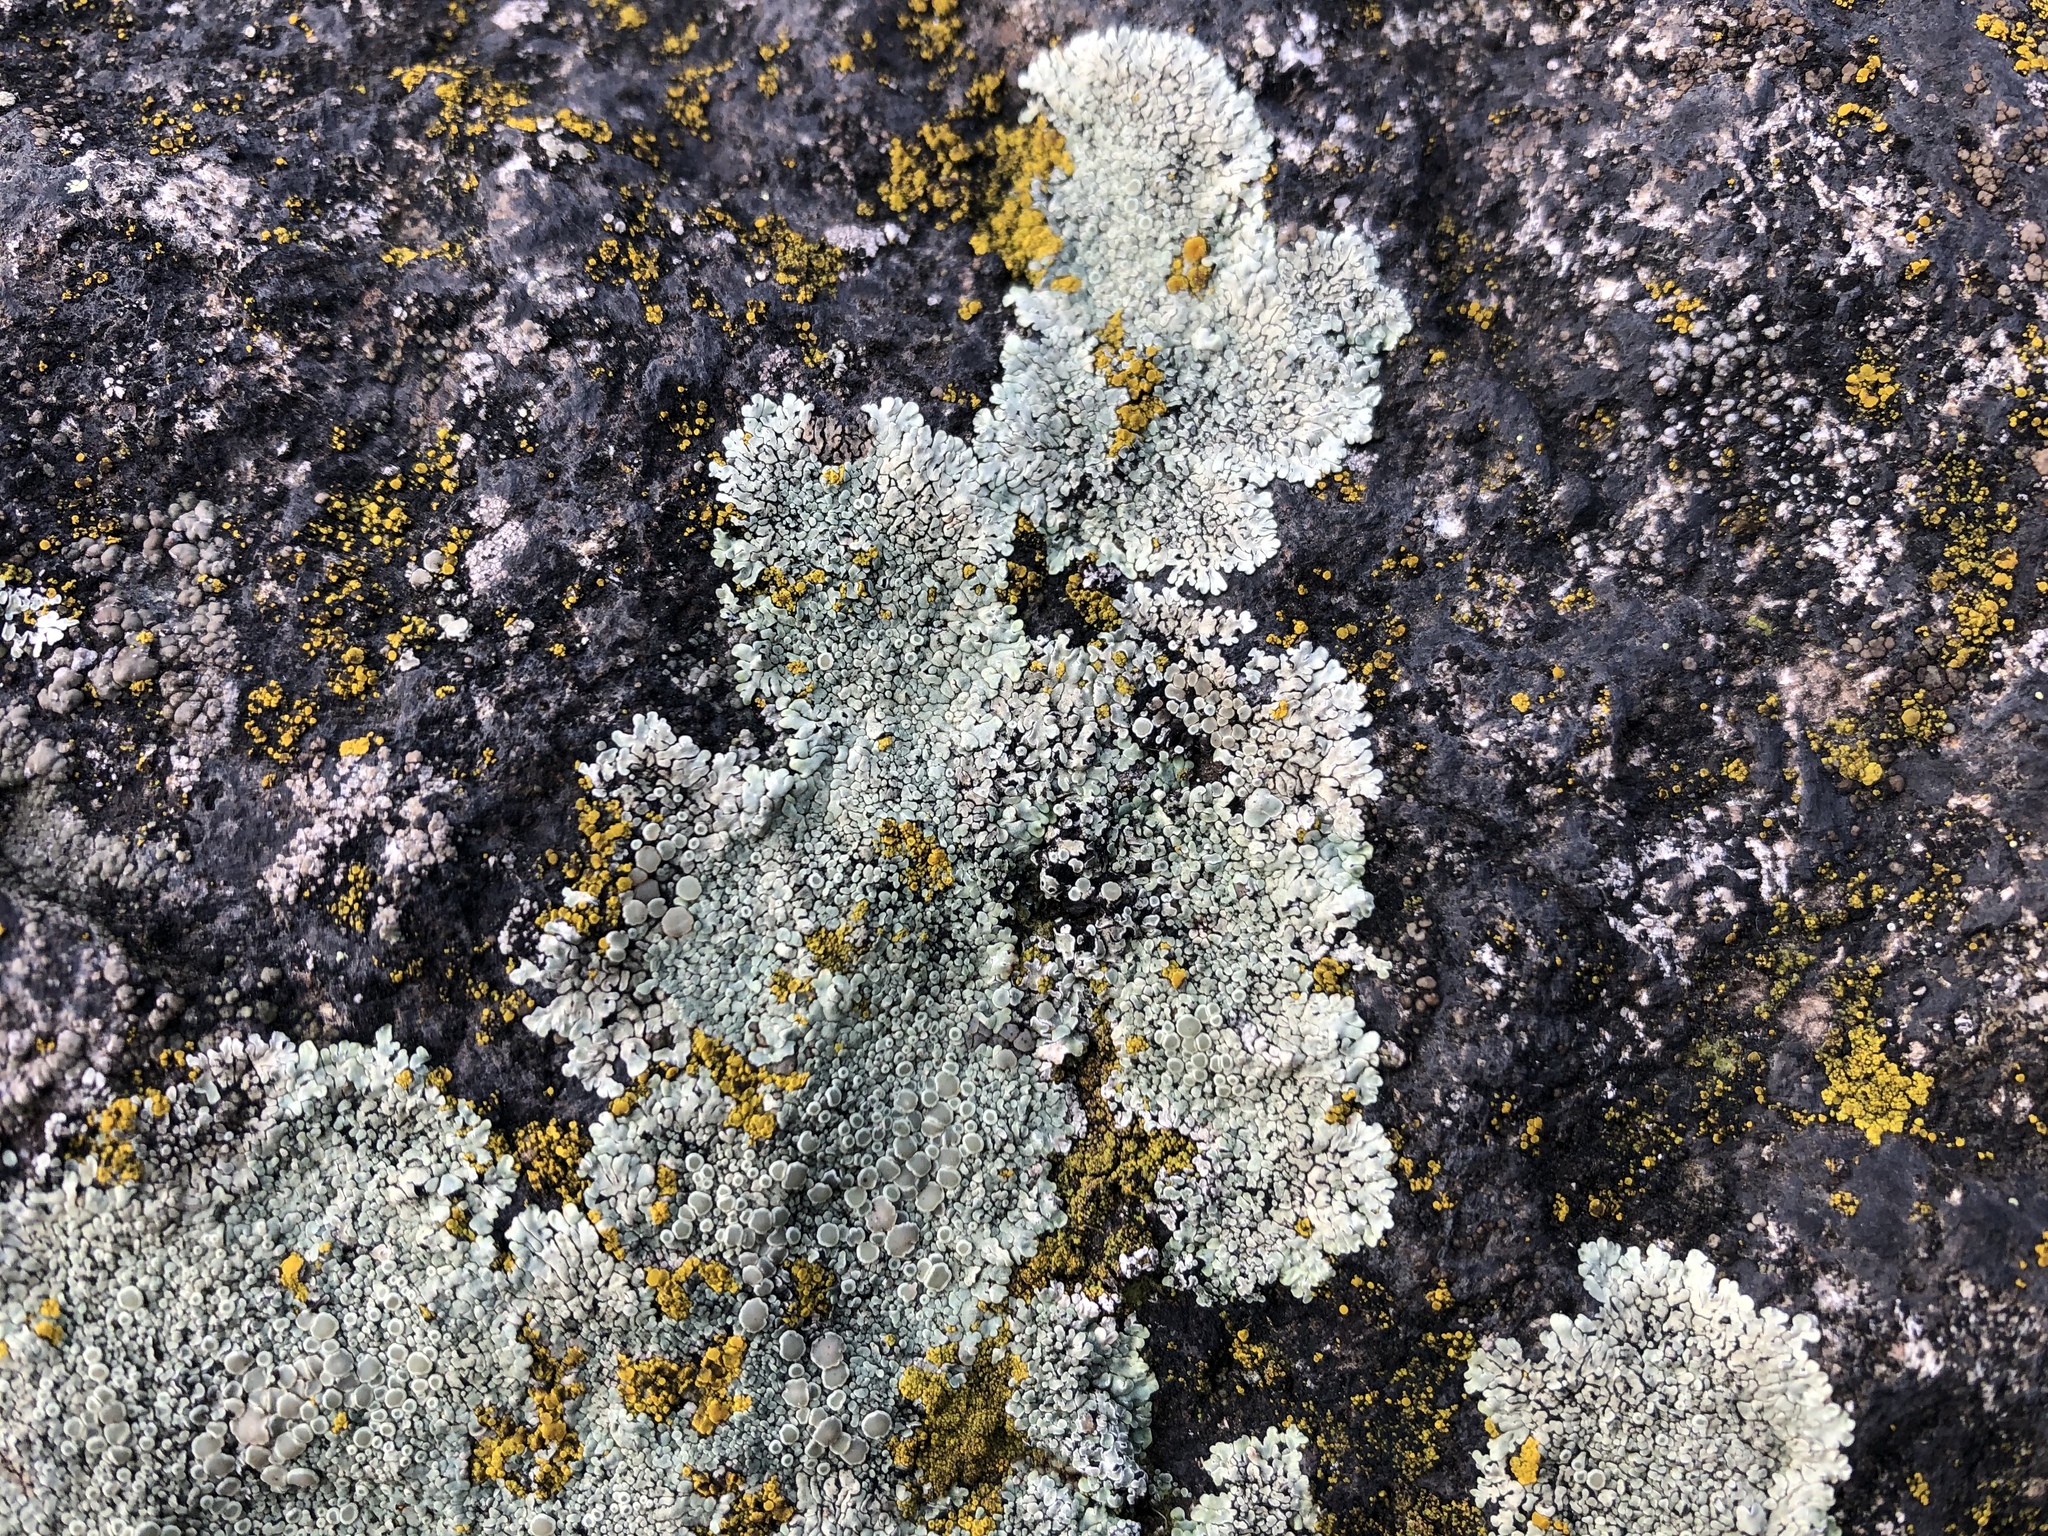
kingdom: Fungi
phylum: Ascomycota
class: Lecanoromycetes
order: Lecanorales
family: Lecanoraceae
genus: Protoparmeliopsis
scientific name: Protoparmeliopsis muralis
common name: Stonewall rim lichen
